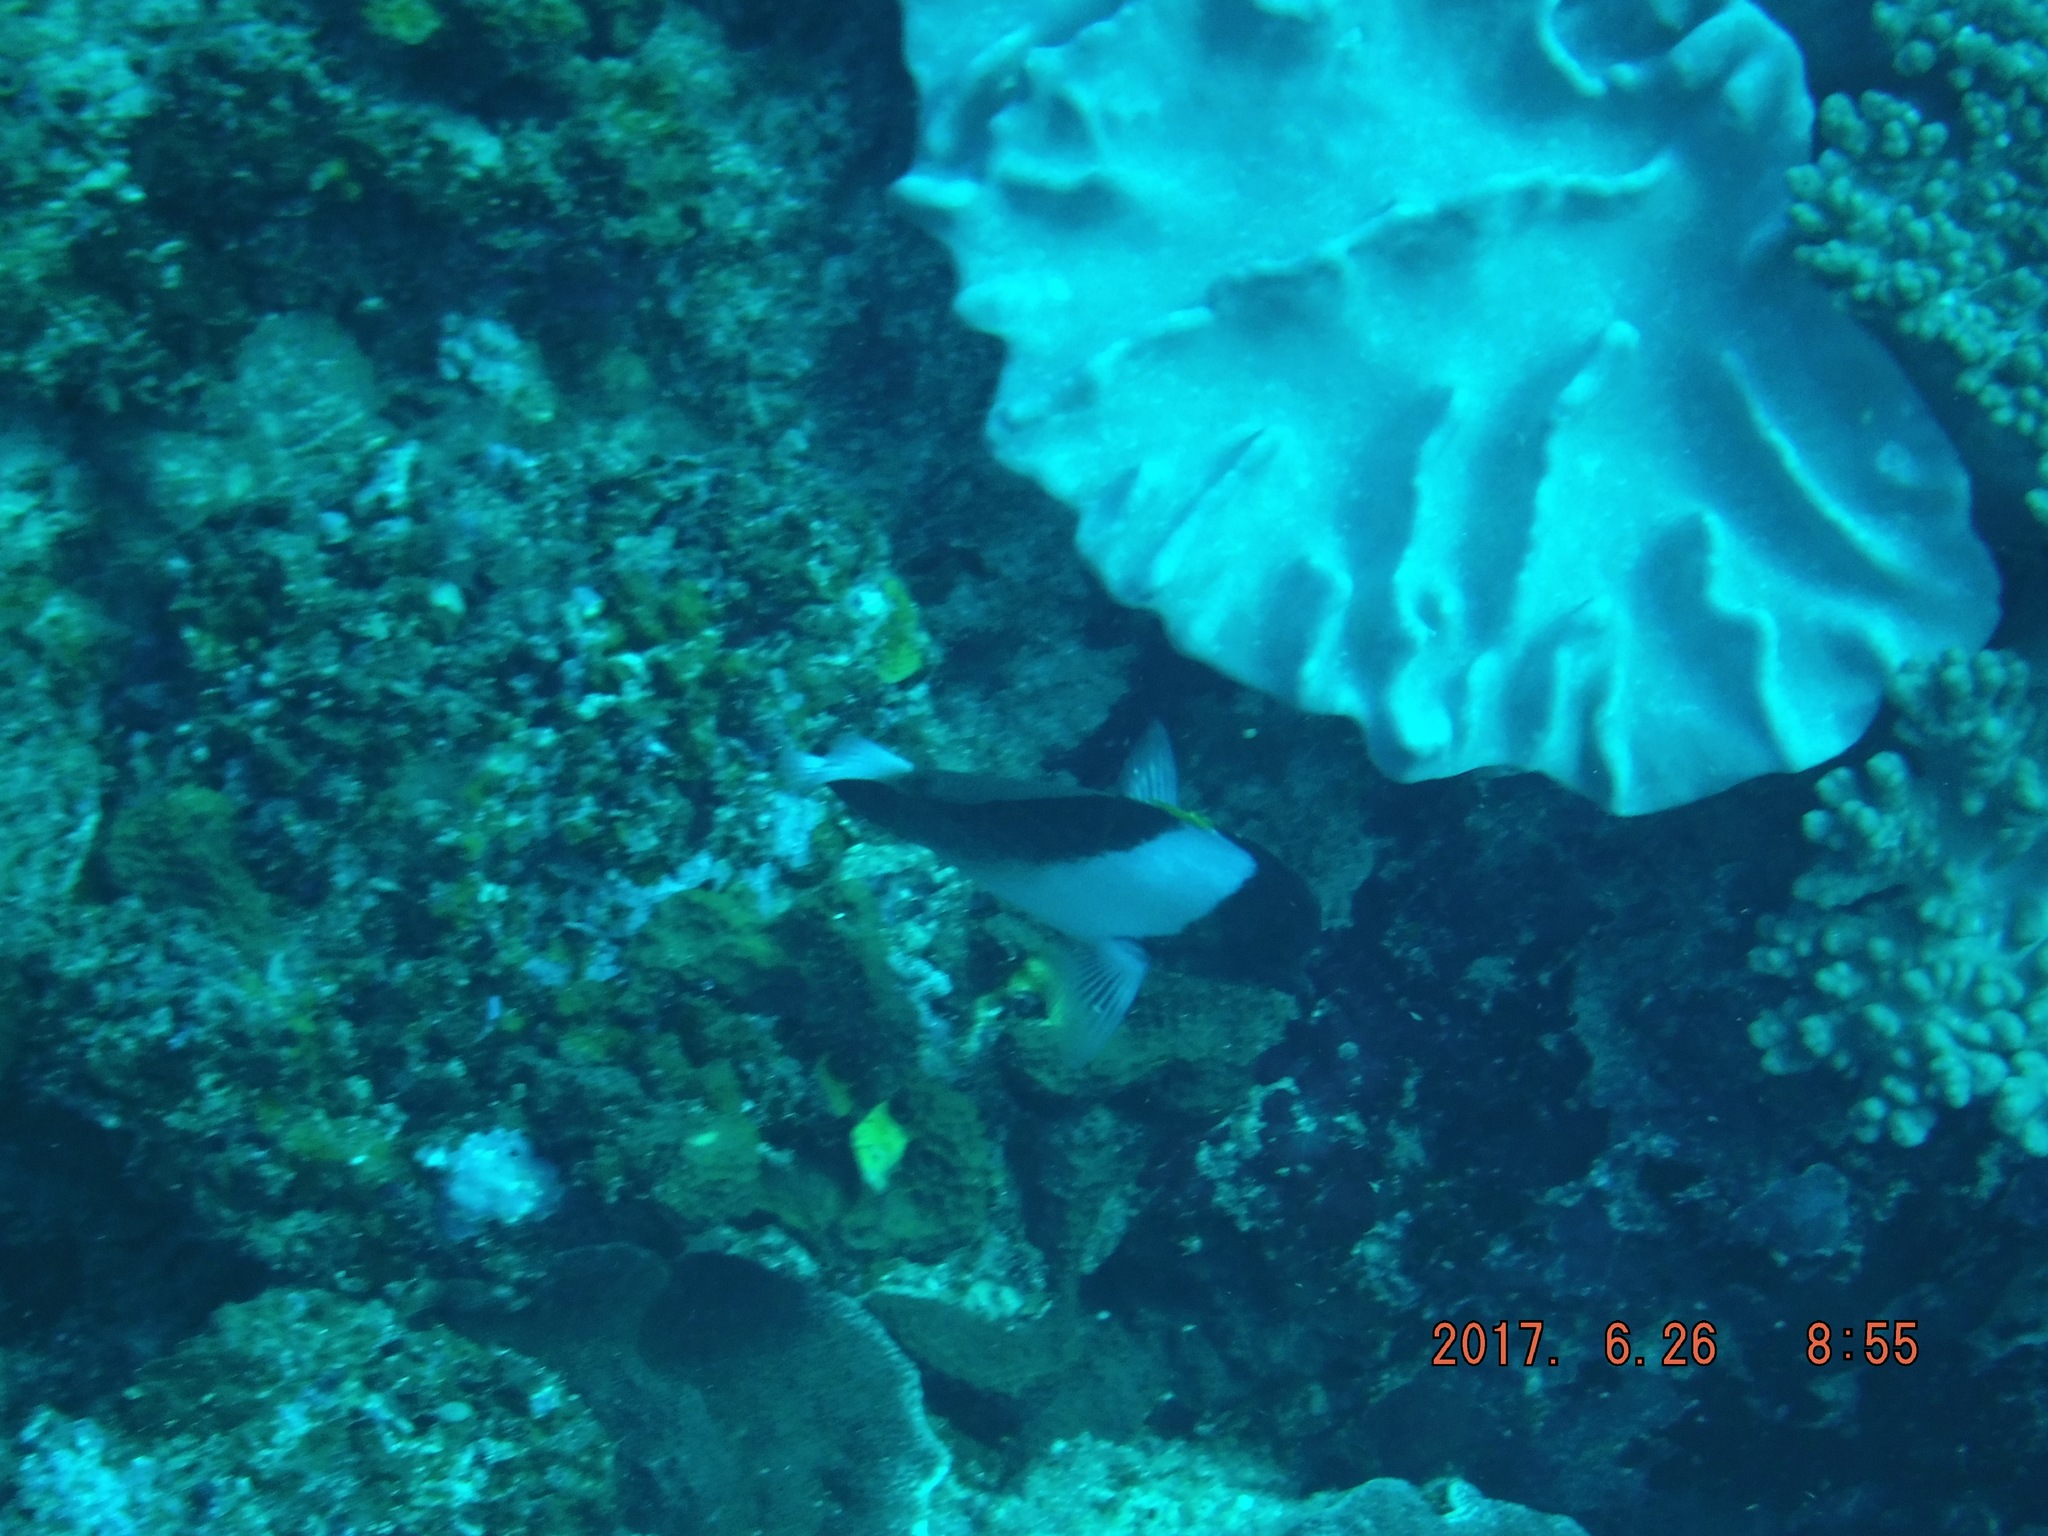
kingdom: Animalia
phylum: Chordata
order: Perciformes
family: Chaetodontidae
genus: Hemitaurichthys
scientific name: Hemitaurichthys zoster
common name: Brown-and-white butterflyfish
